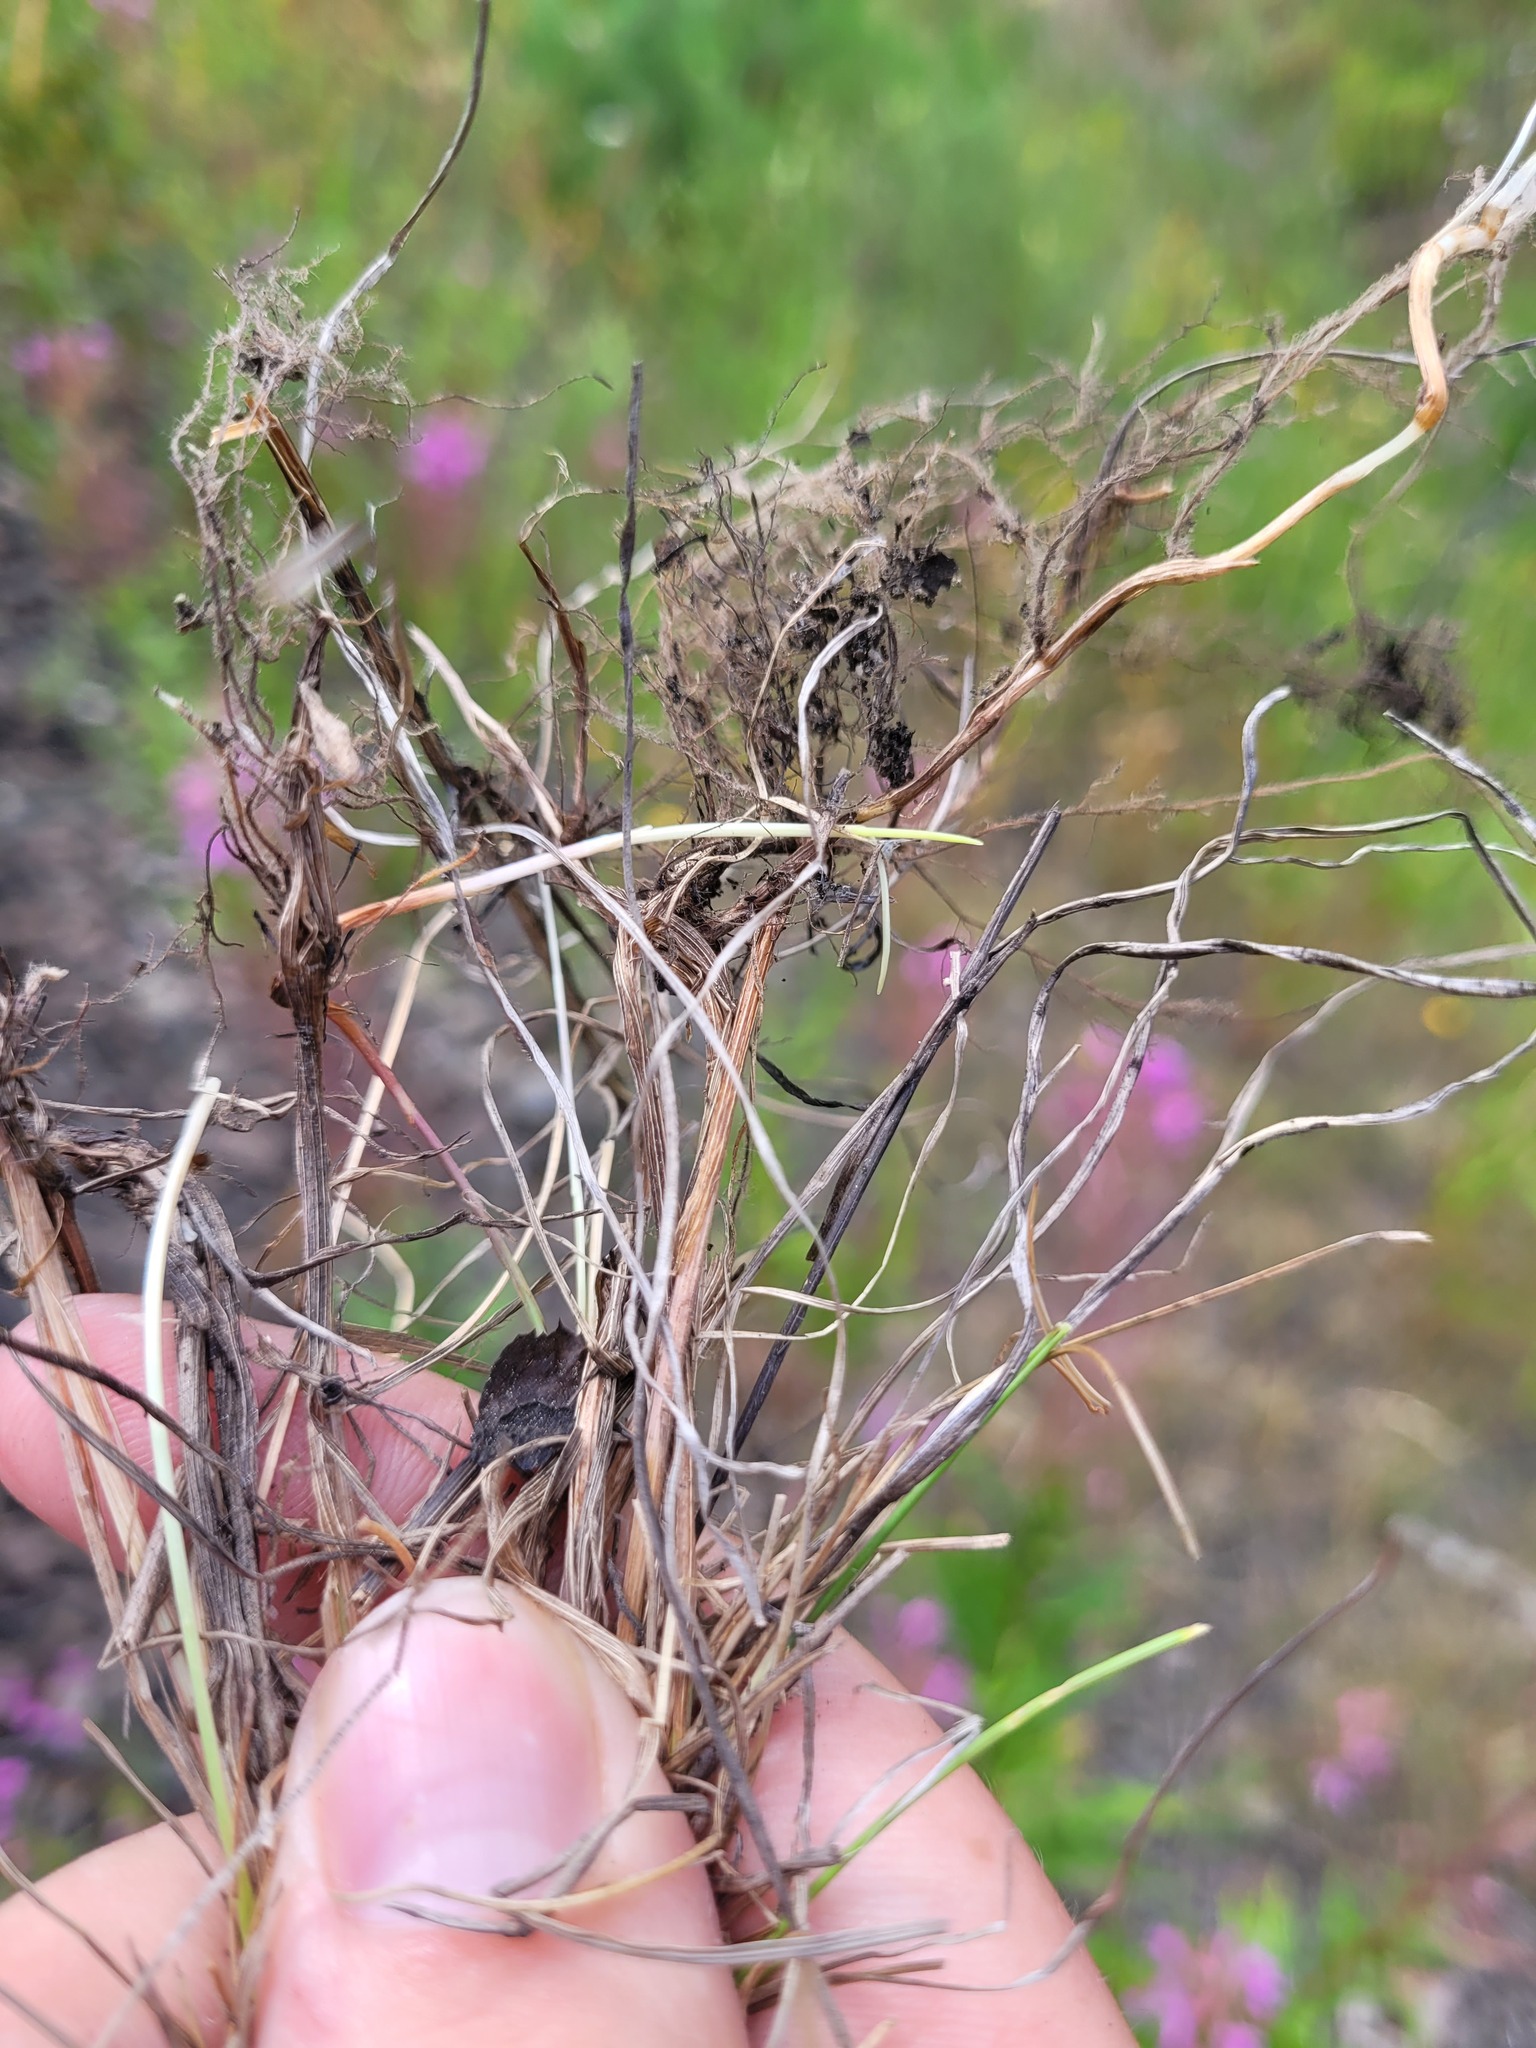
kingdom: Plantae
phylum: Tracheophyta
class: Liliopsida
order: Poales
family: Poaceae
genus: Festuca
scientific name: Festuca rubra
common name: Red fescue
